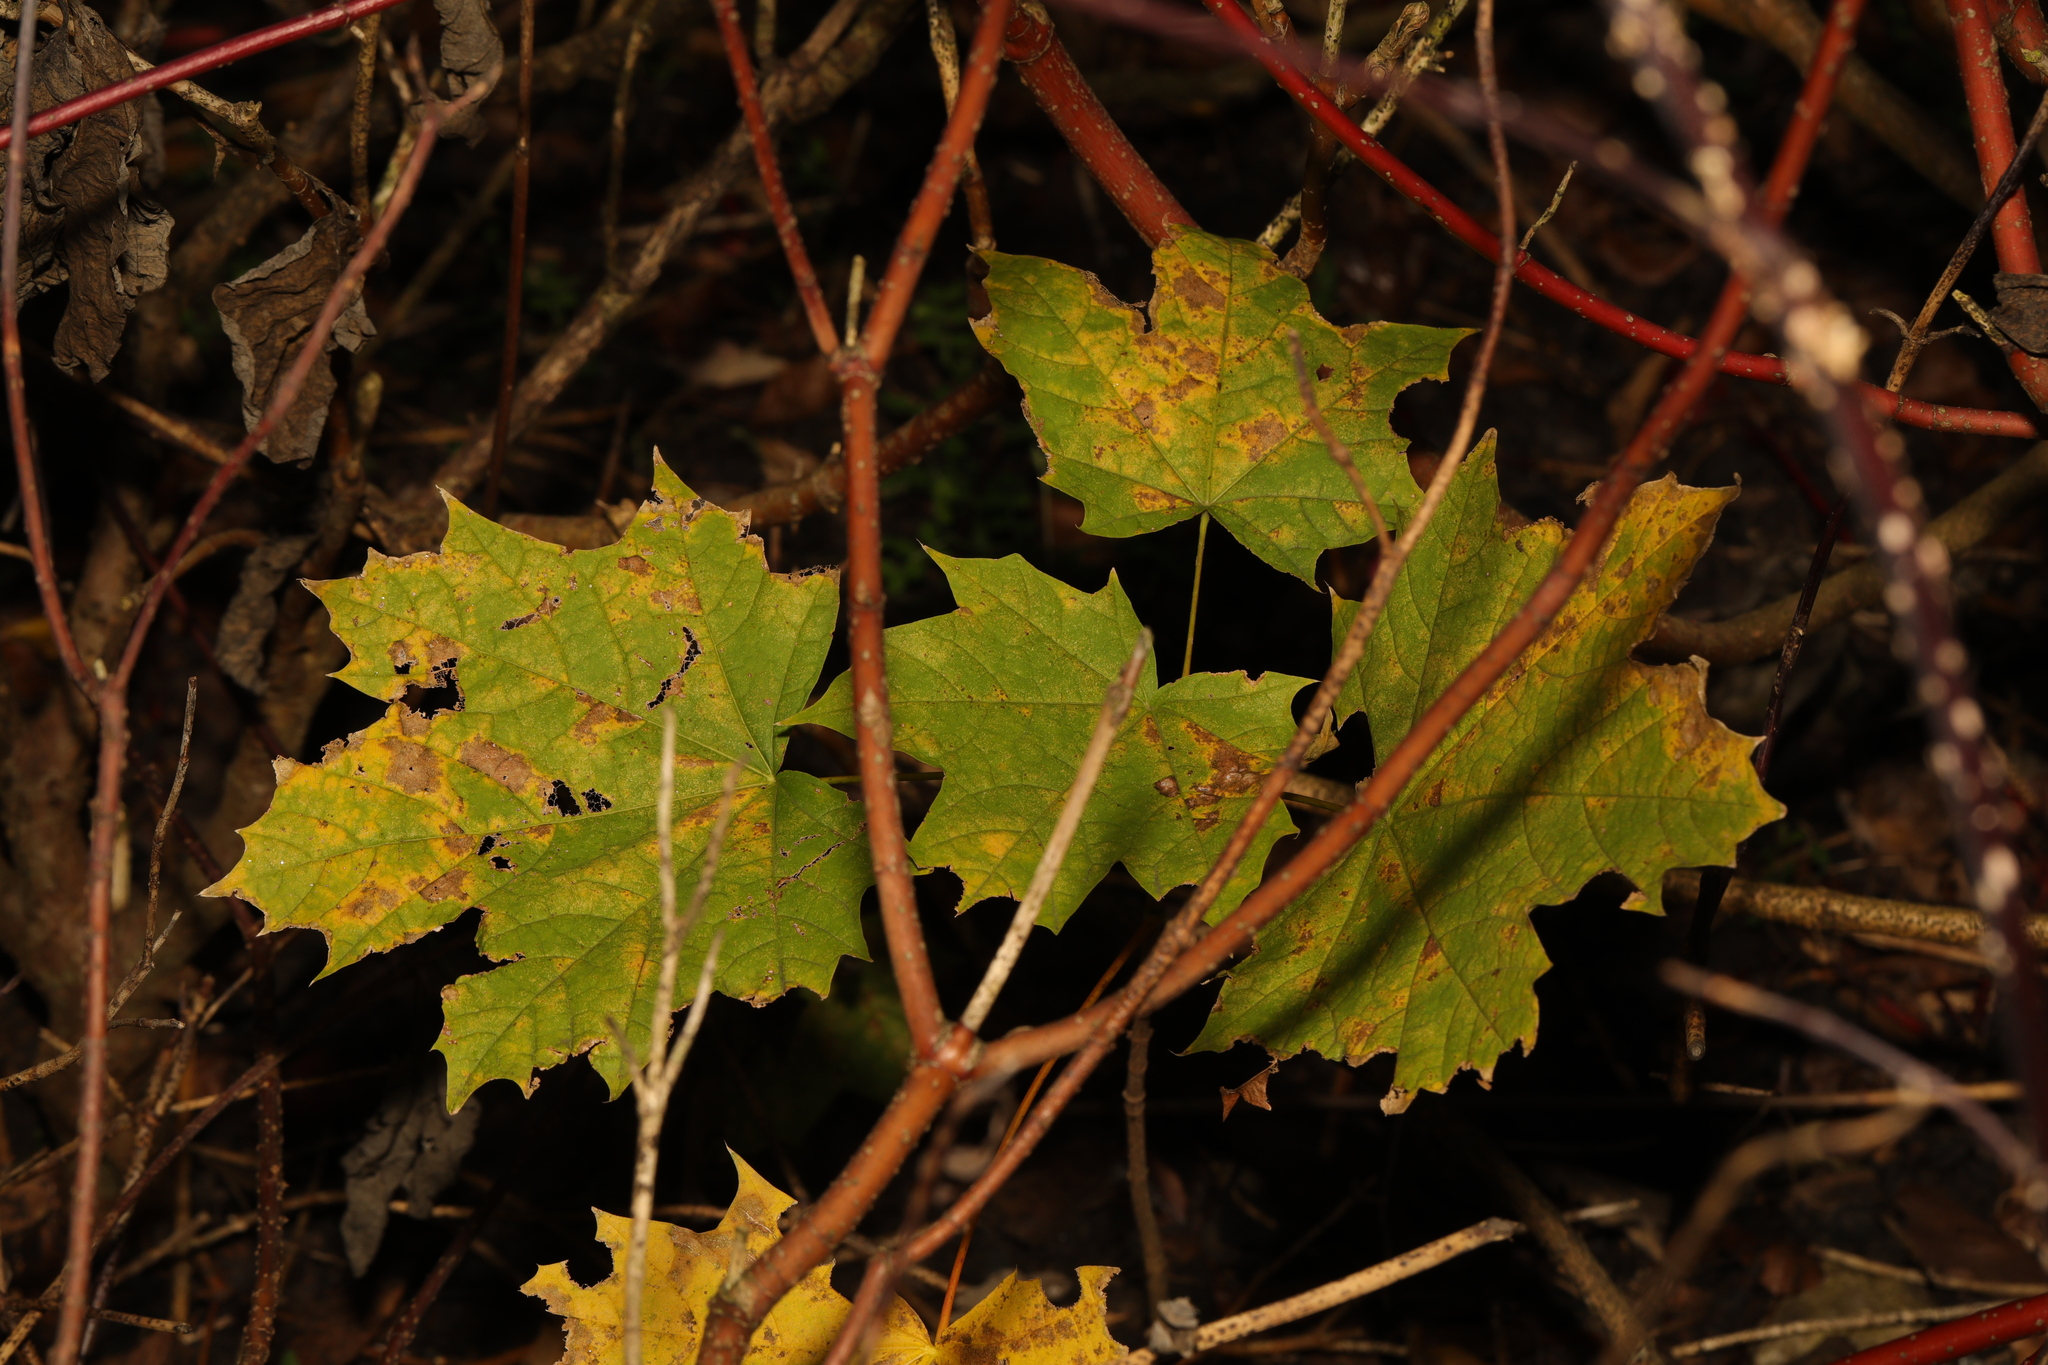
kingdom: Plantae
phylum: Tracheophyta
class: Magnoliopsida
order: Sapindales
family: Sapindaceae
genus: Acer
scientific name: Acer platanoides
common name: Norway maple
